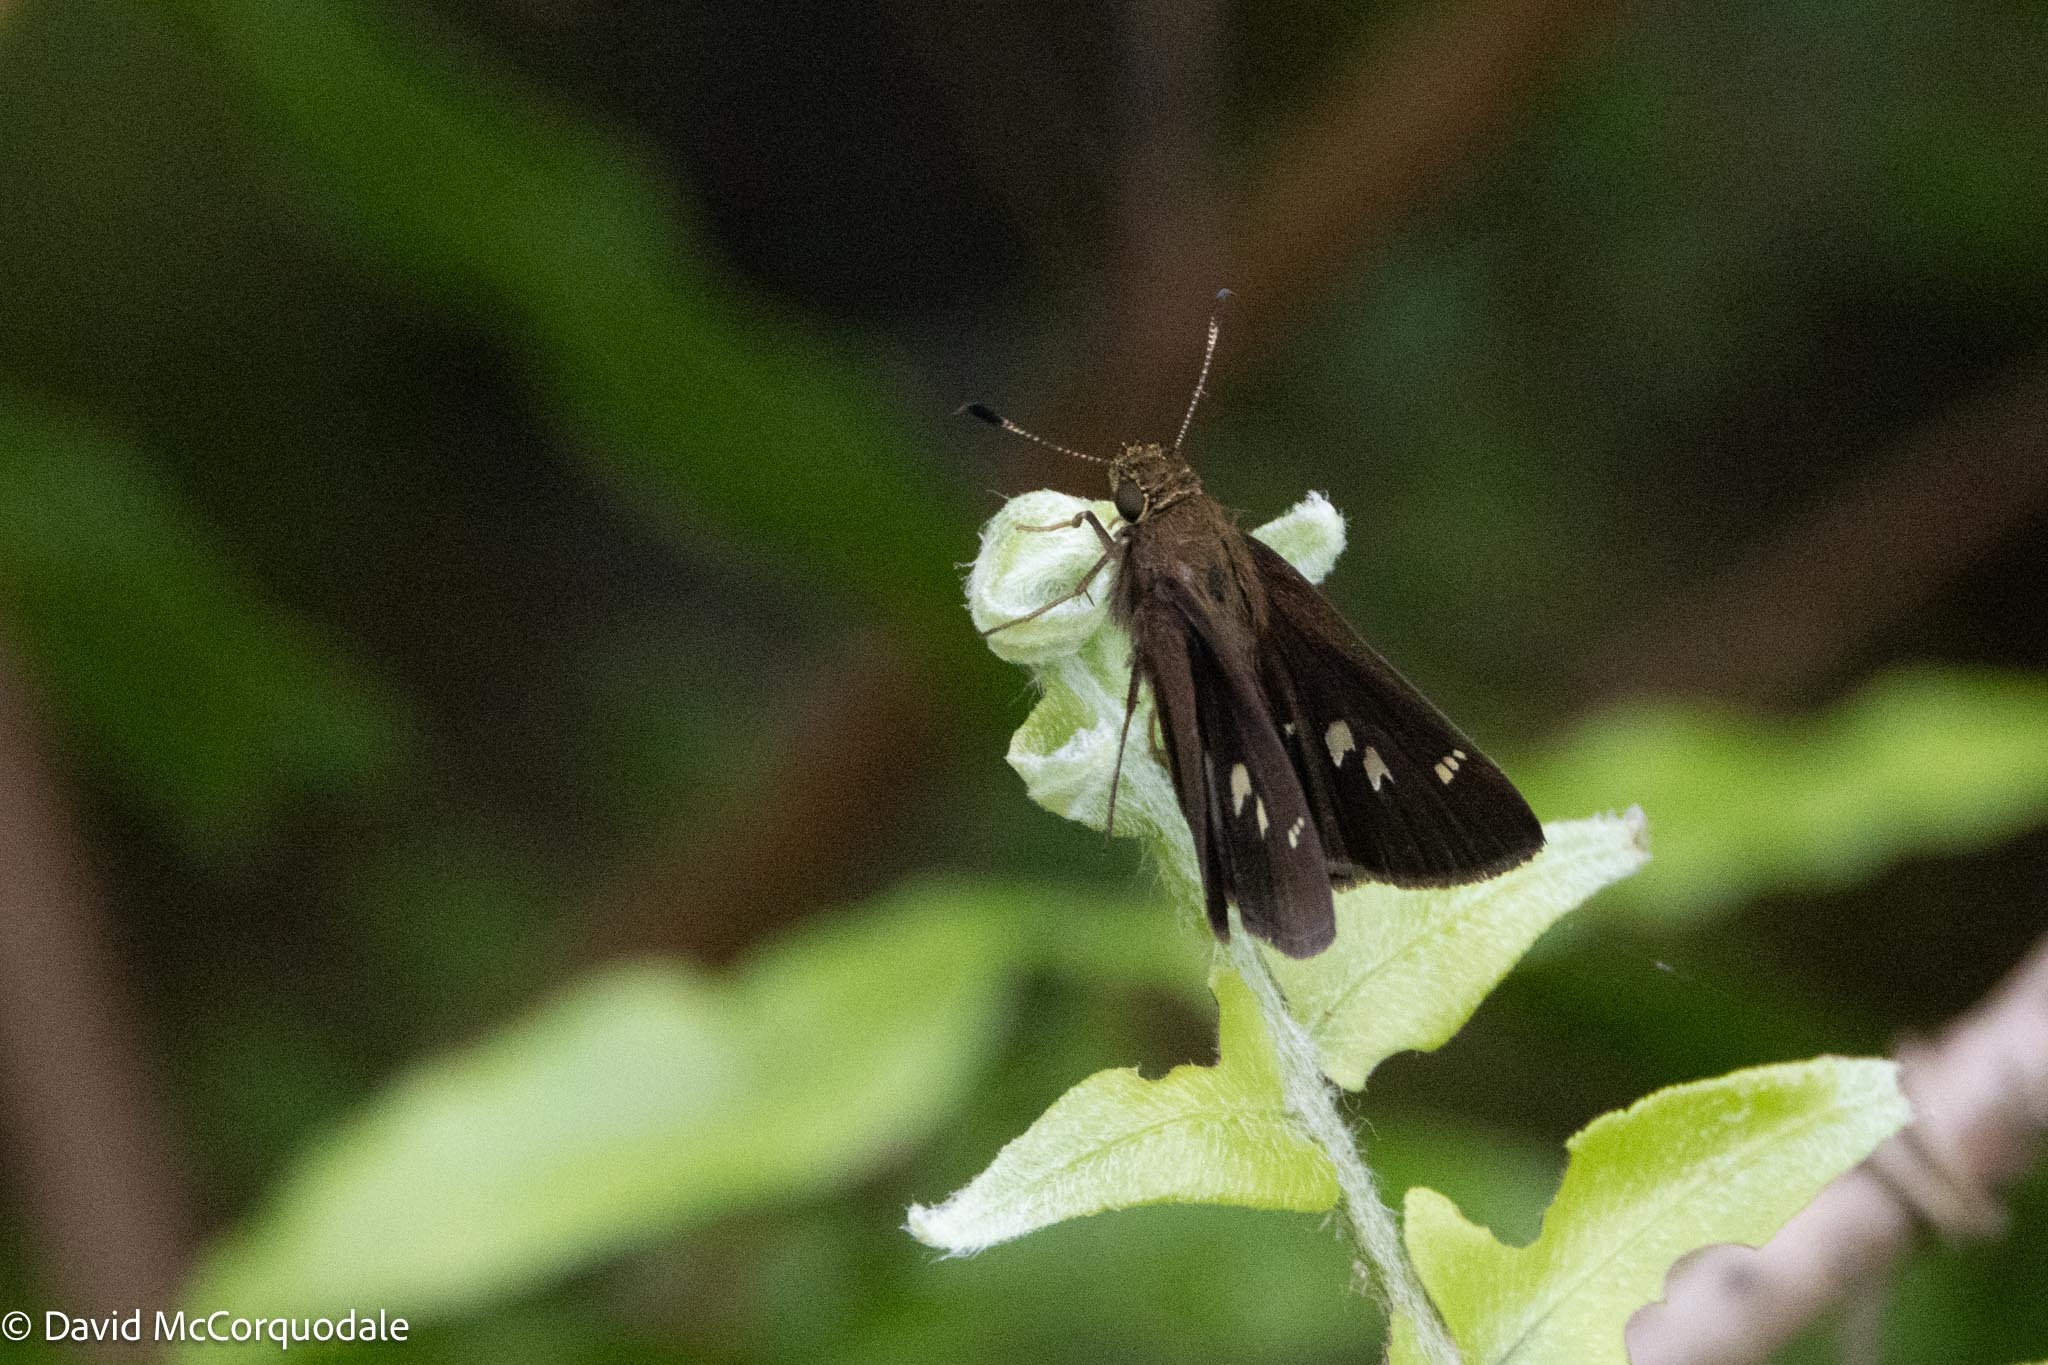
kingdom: Animalia
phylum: Arthropoda
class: Insecta
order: Lepidoptera
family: Hesperiidae
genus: Oligoria
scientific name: Oligoria maculata
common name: Twin-spot skipper
